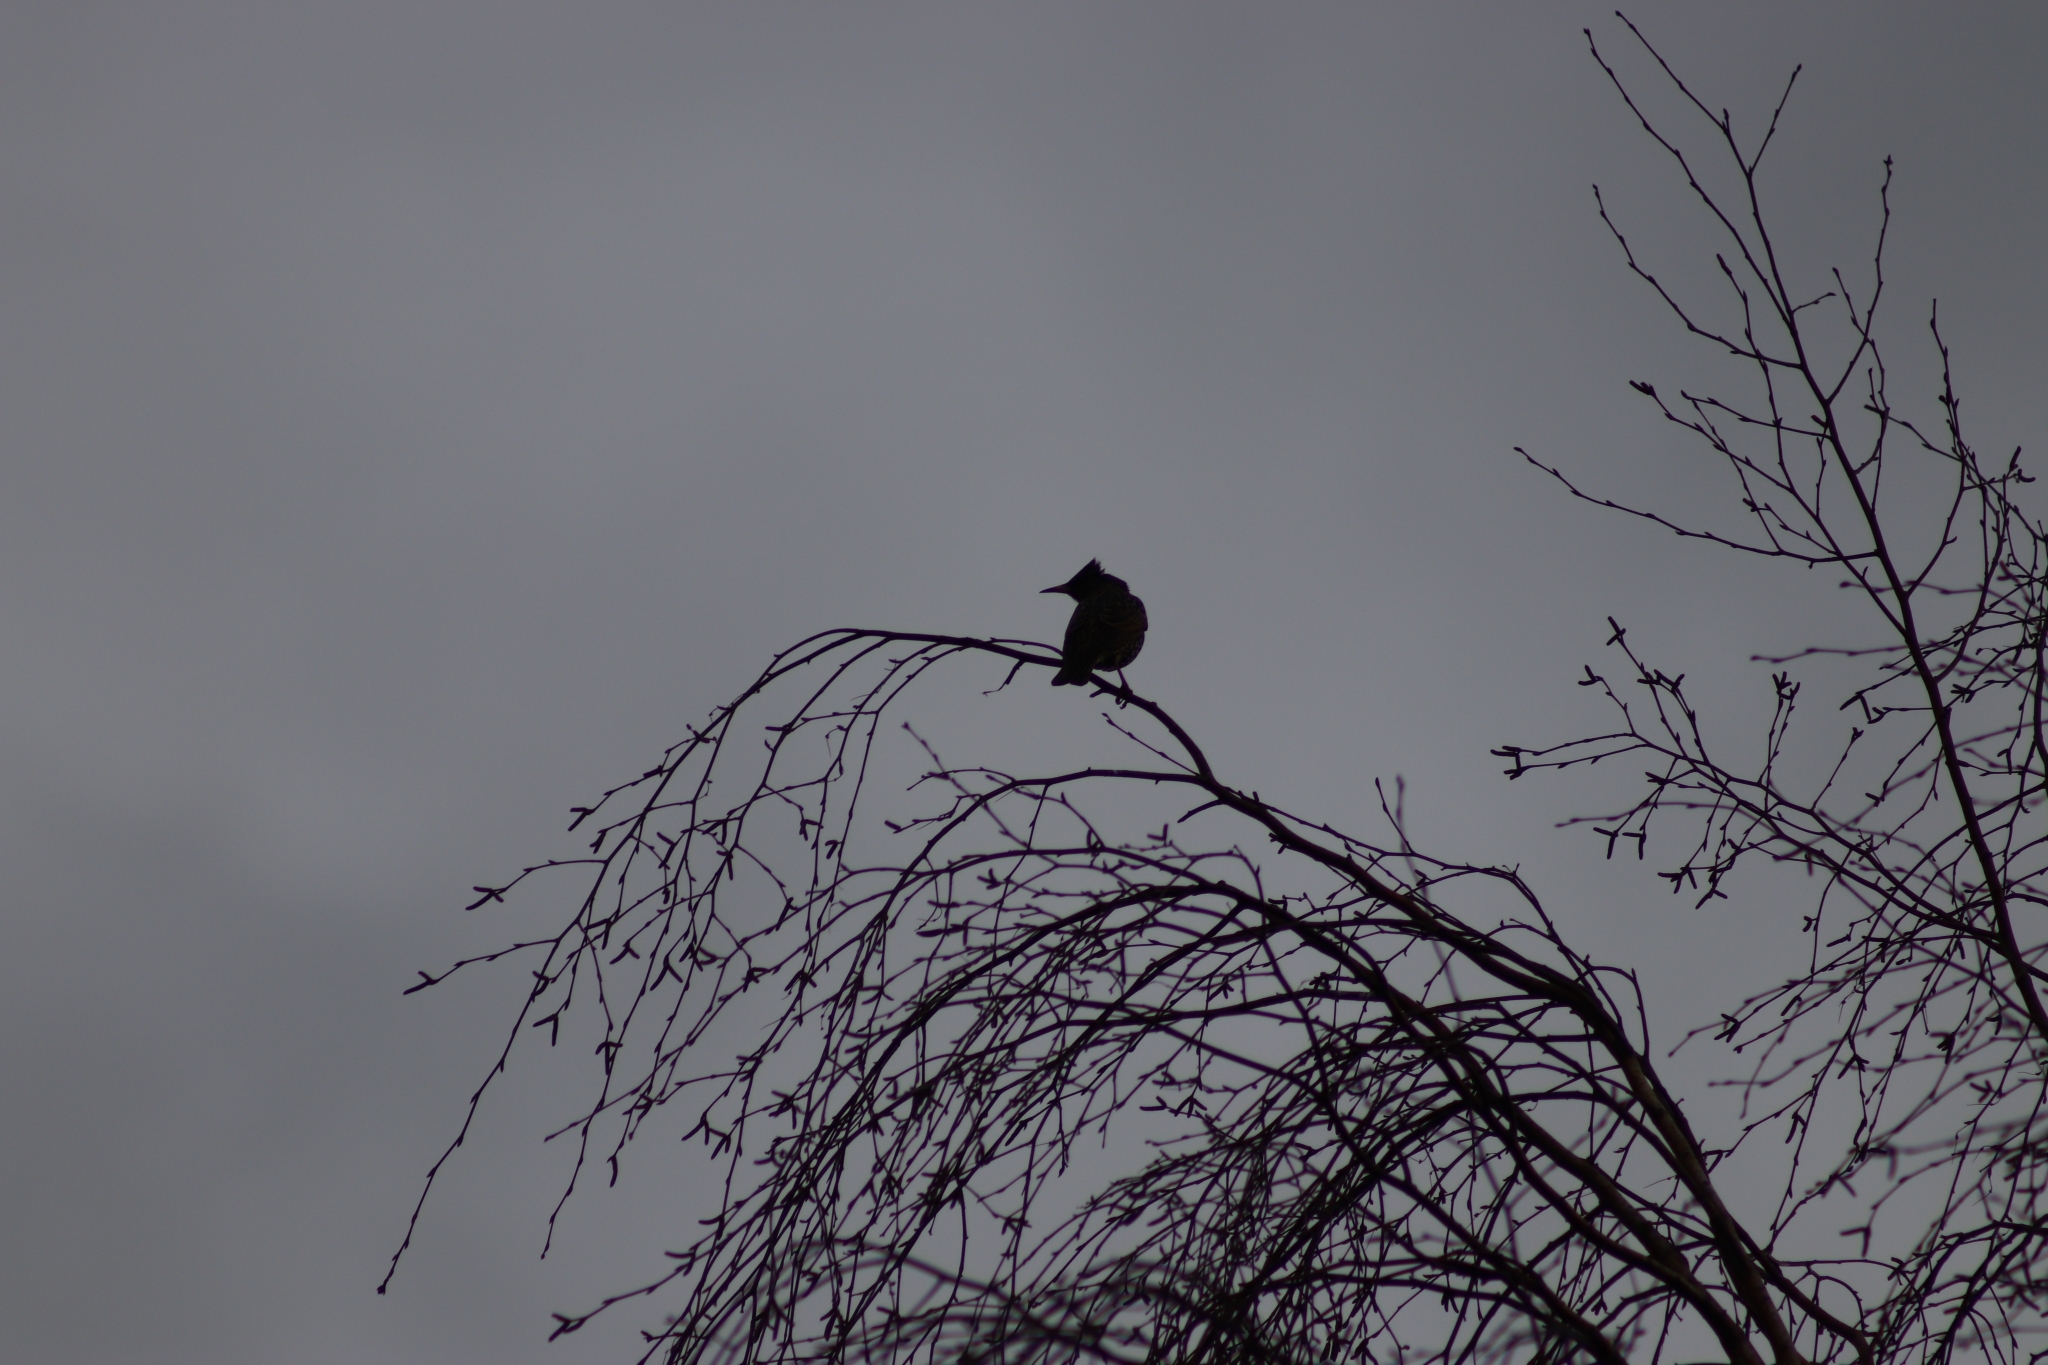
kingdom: Animalia
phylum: Chordata
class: Aves
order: Passeriformes
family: Sturnidae
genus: Sturnus
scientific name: Sturnus vulgaris
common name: Common starling
